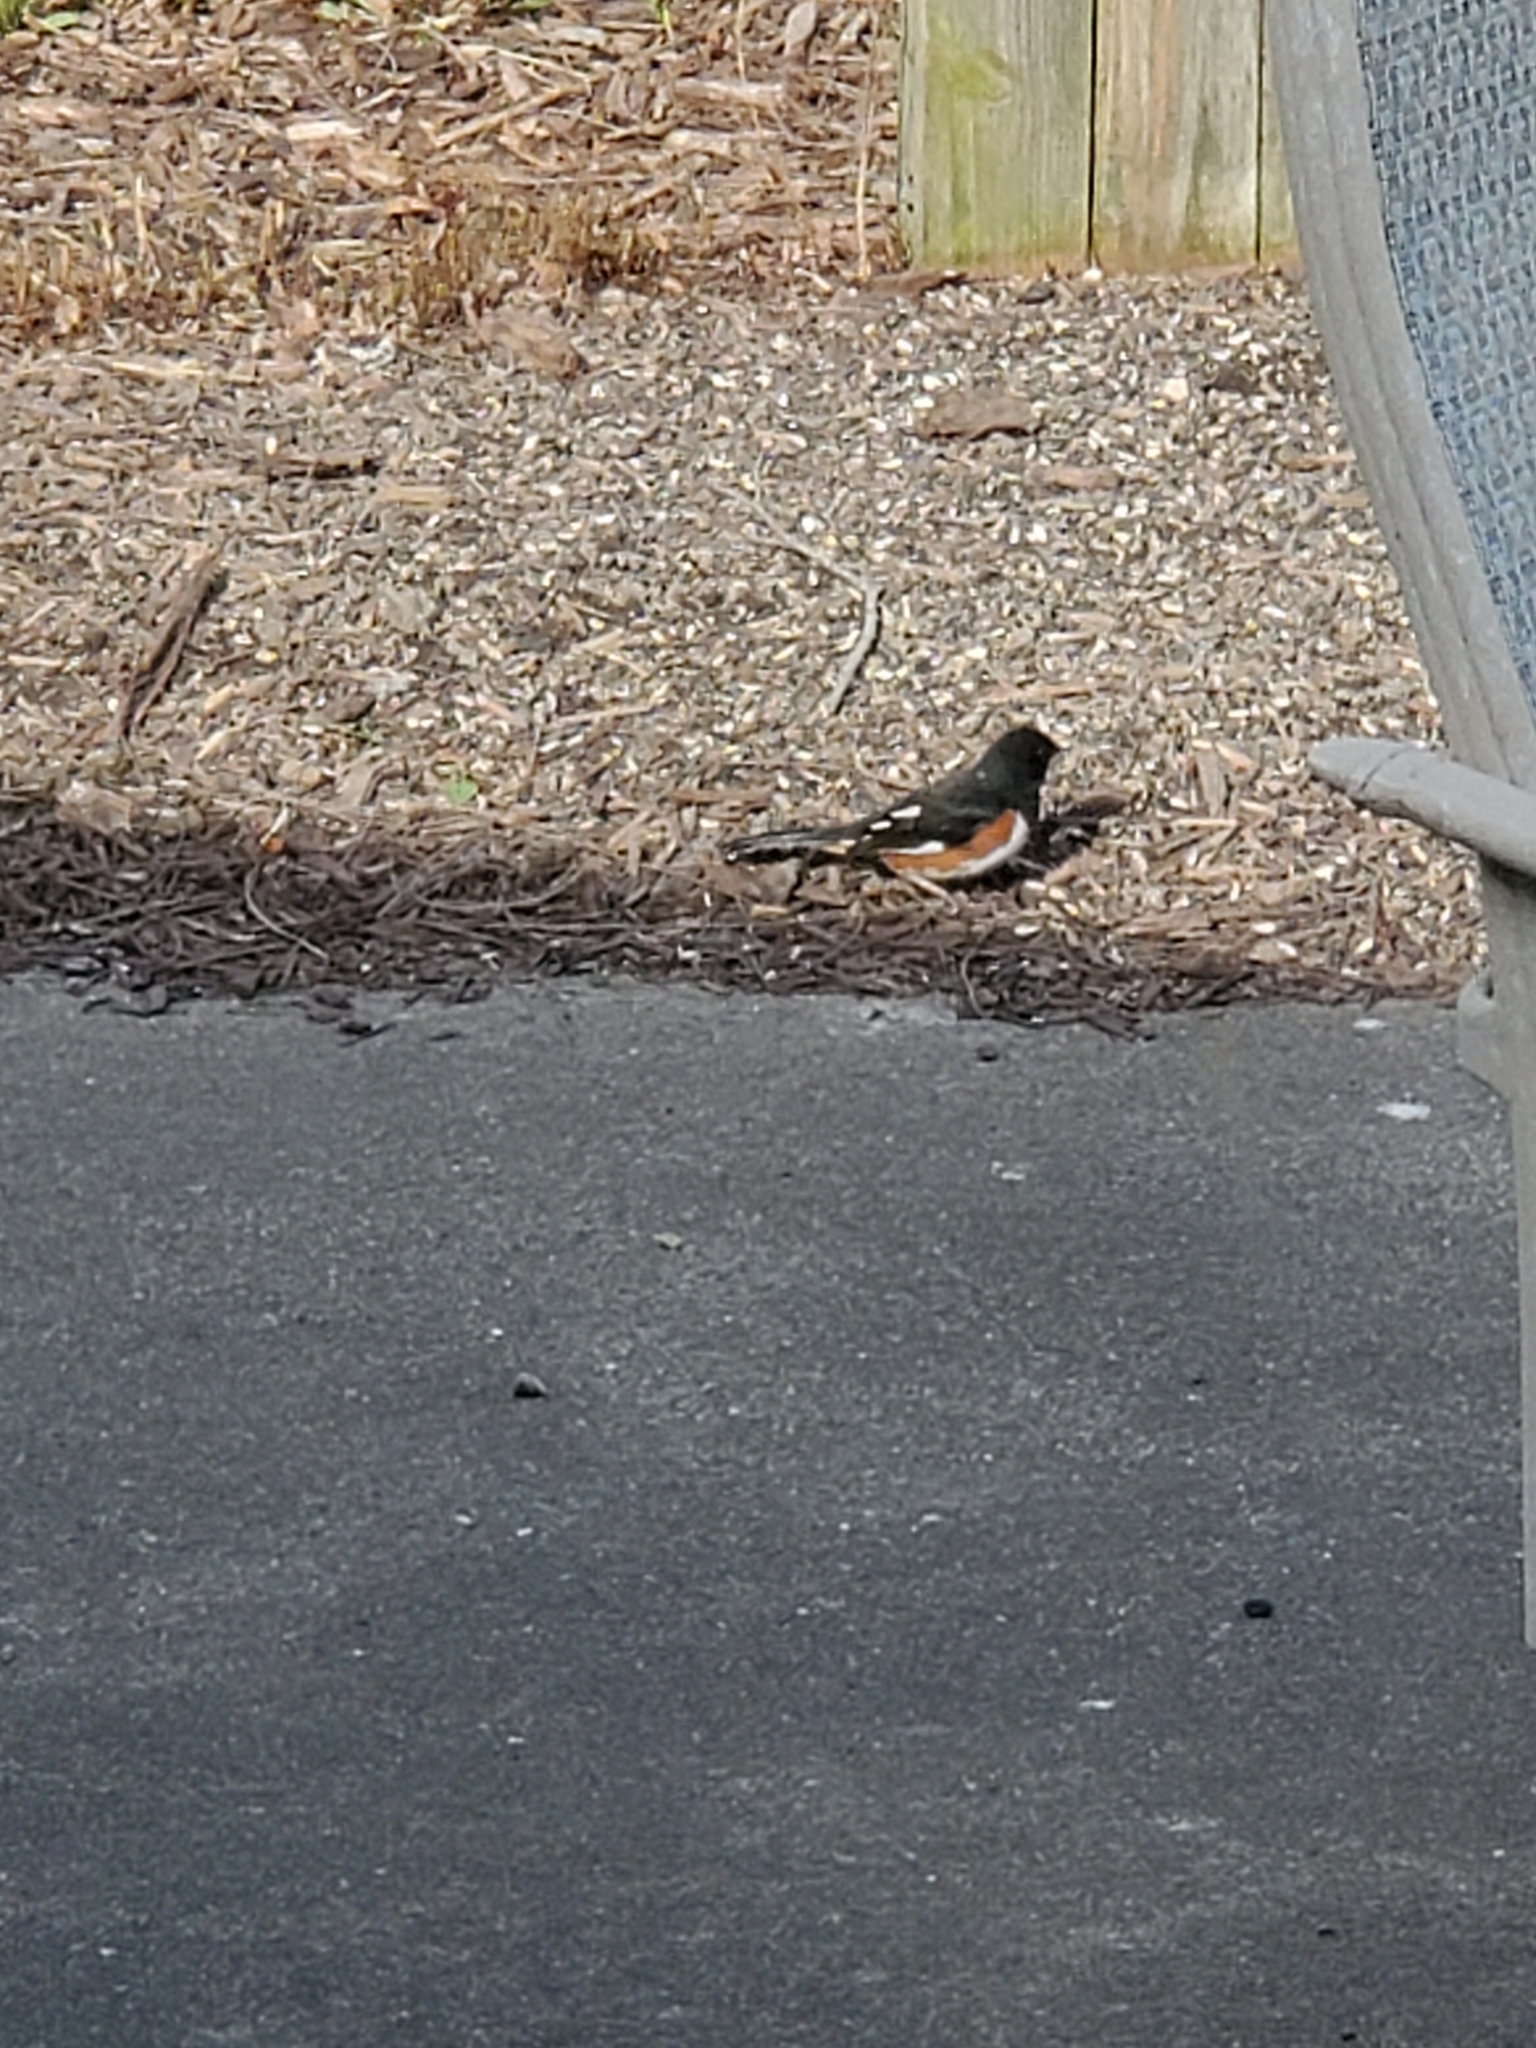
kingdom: Animalia
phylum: Chordata
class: Aves
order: Passeriformes
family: Passerellidae
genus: Pipilo
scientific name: Pipilo erythrophthalmus
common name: Eastern towhee
